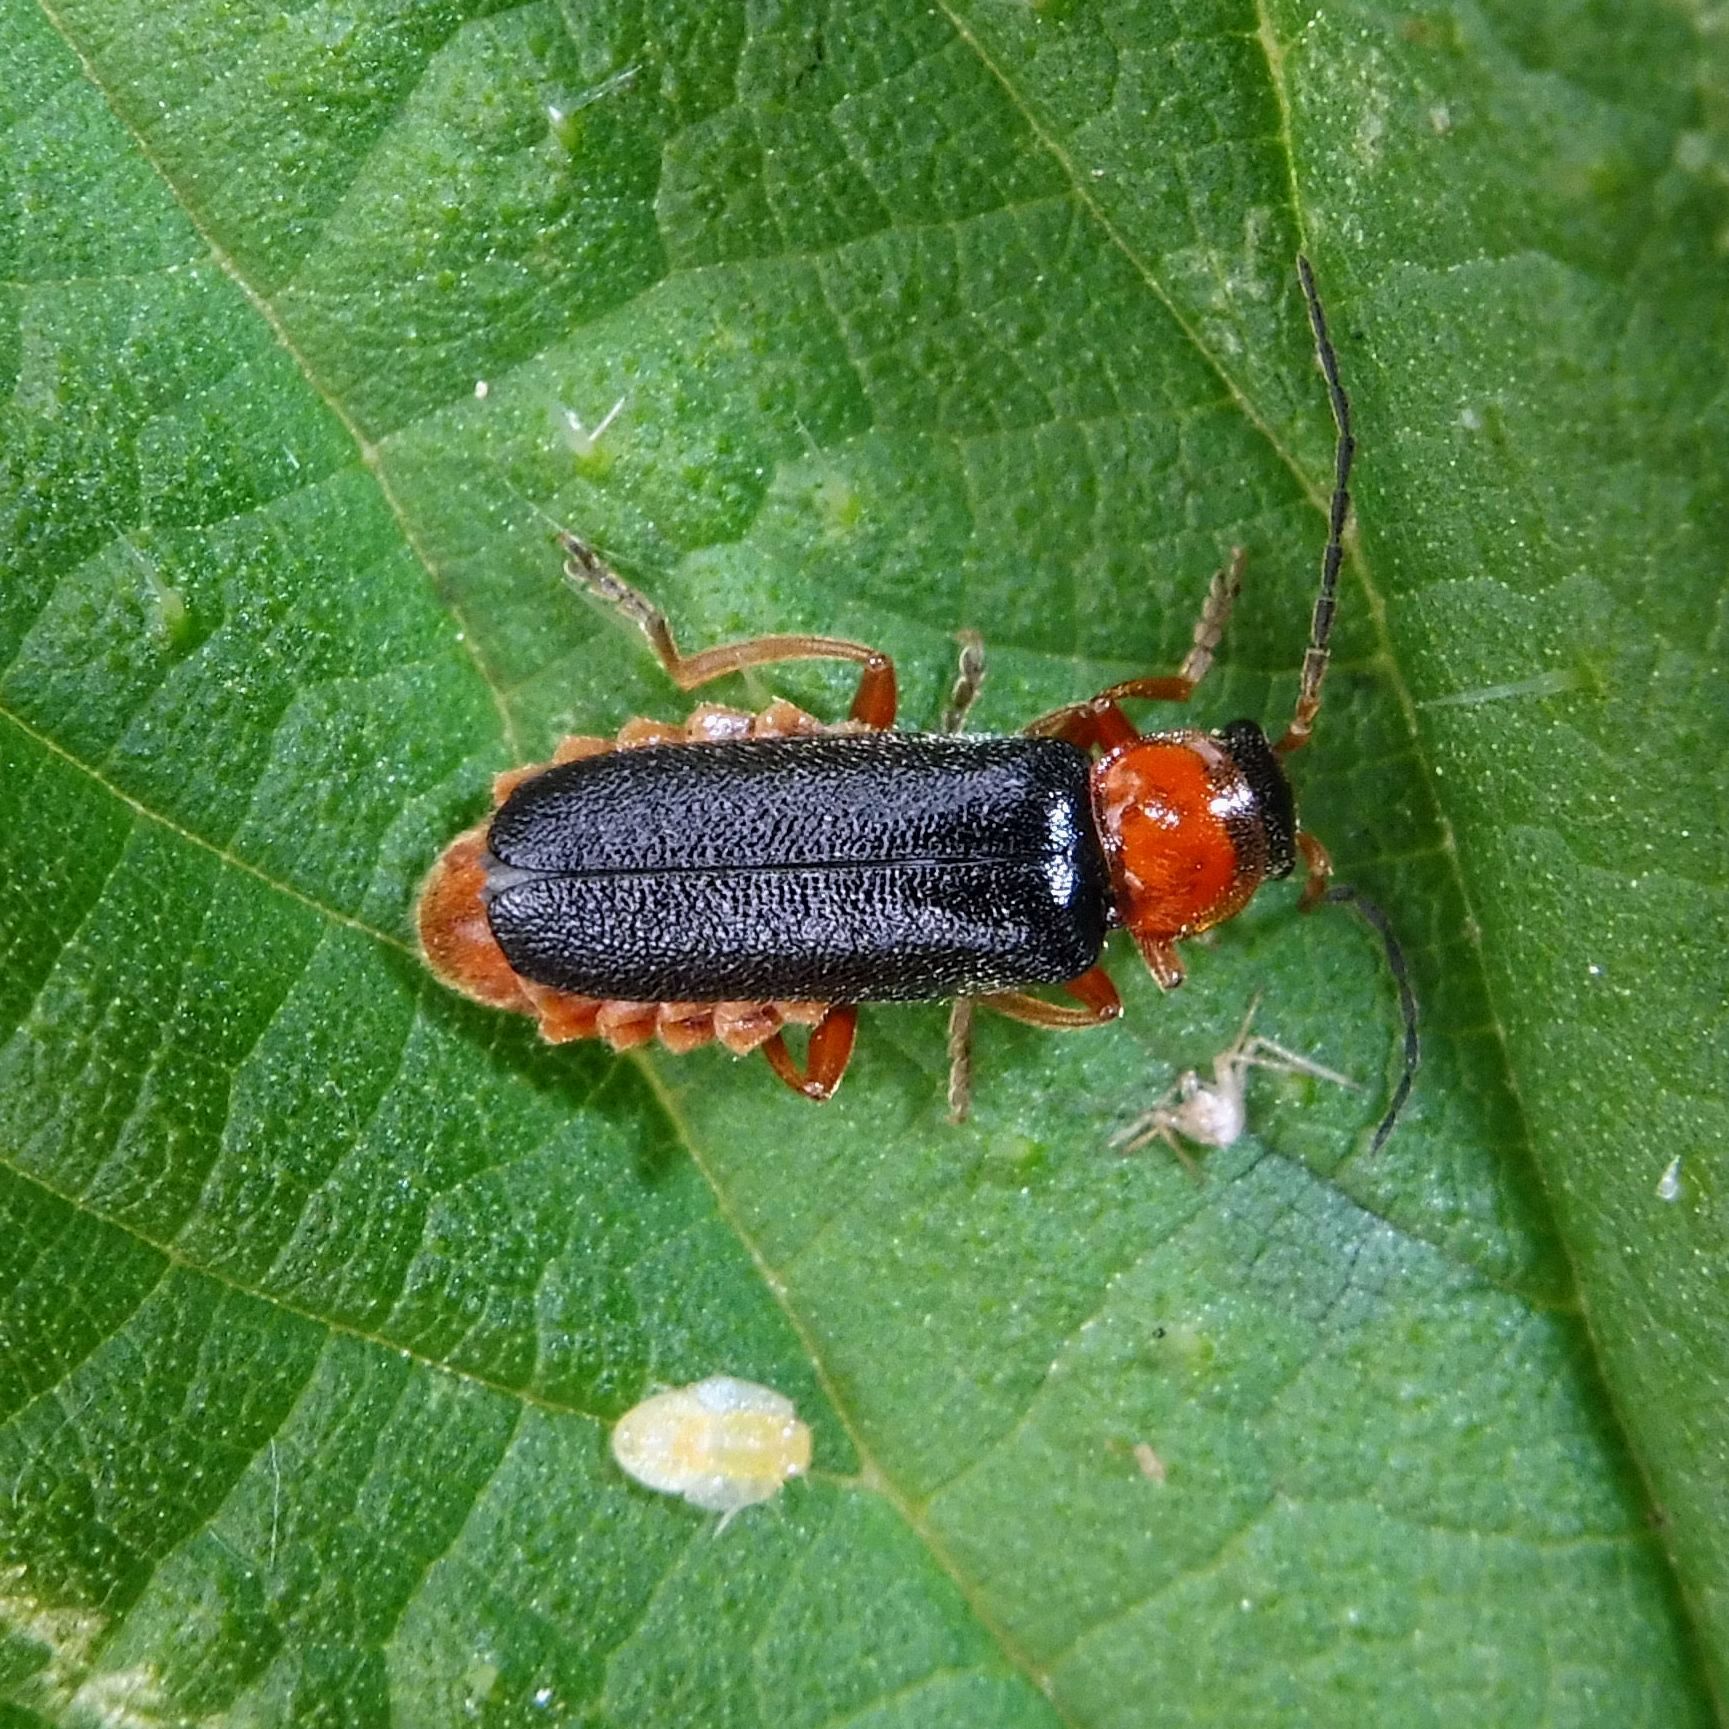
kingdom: Animalia
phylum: Arthropoda
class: Insecta
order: Coleoptera
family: Cantharidae
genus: Cantharis
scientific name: Cantharis flavilabris
